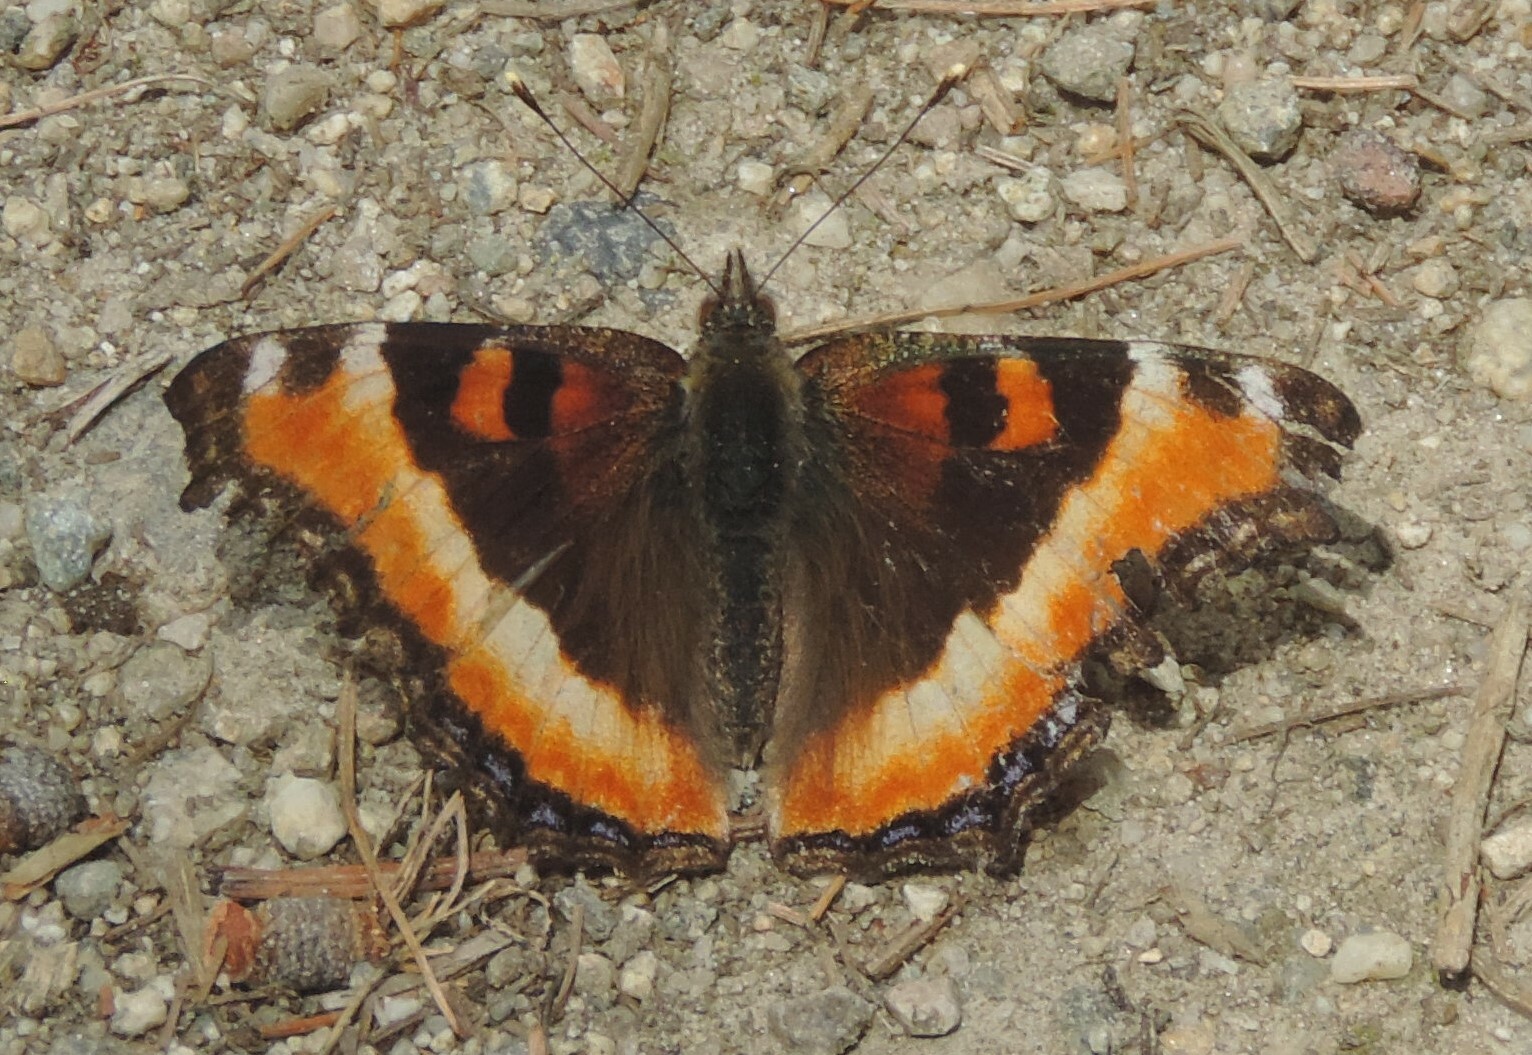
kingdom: Animalia
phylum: Arthropoda
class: Insecta
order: Lepidoptera
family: Nymphalidae
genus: Aglais
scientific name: Aglais milberti
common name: Milbert's tortoiseshell
